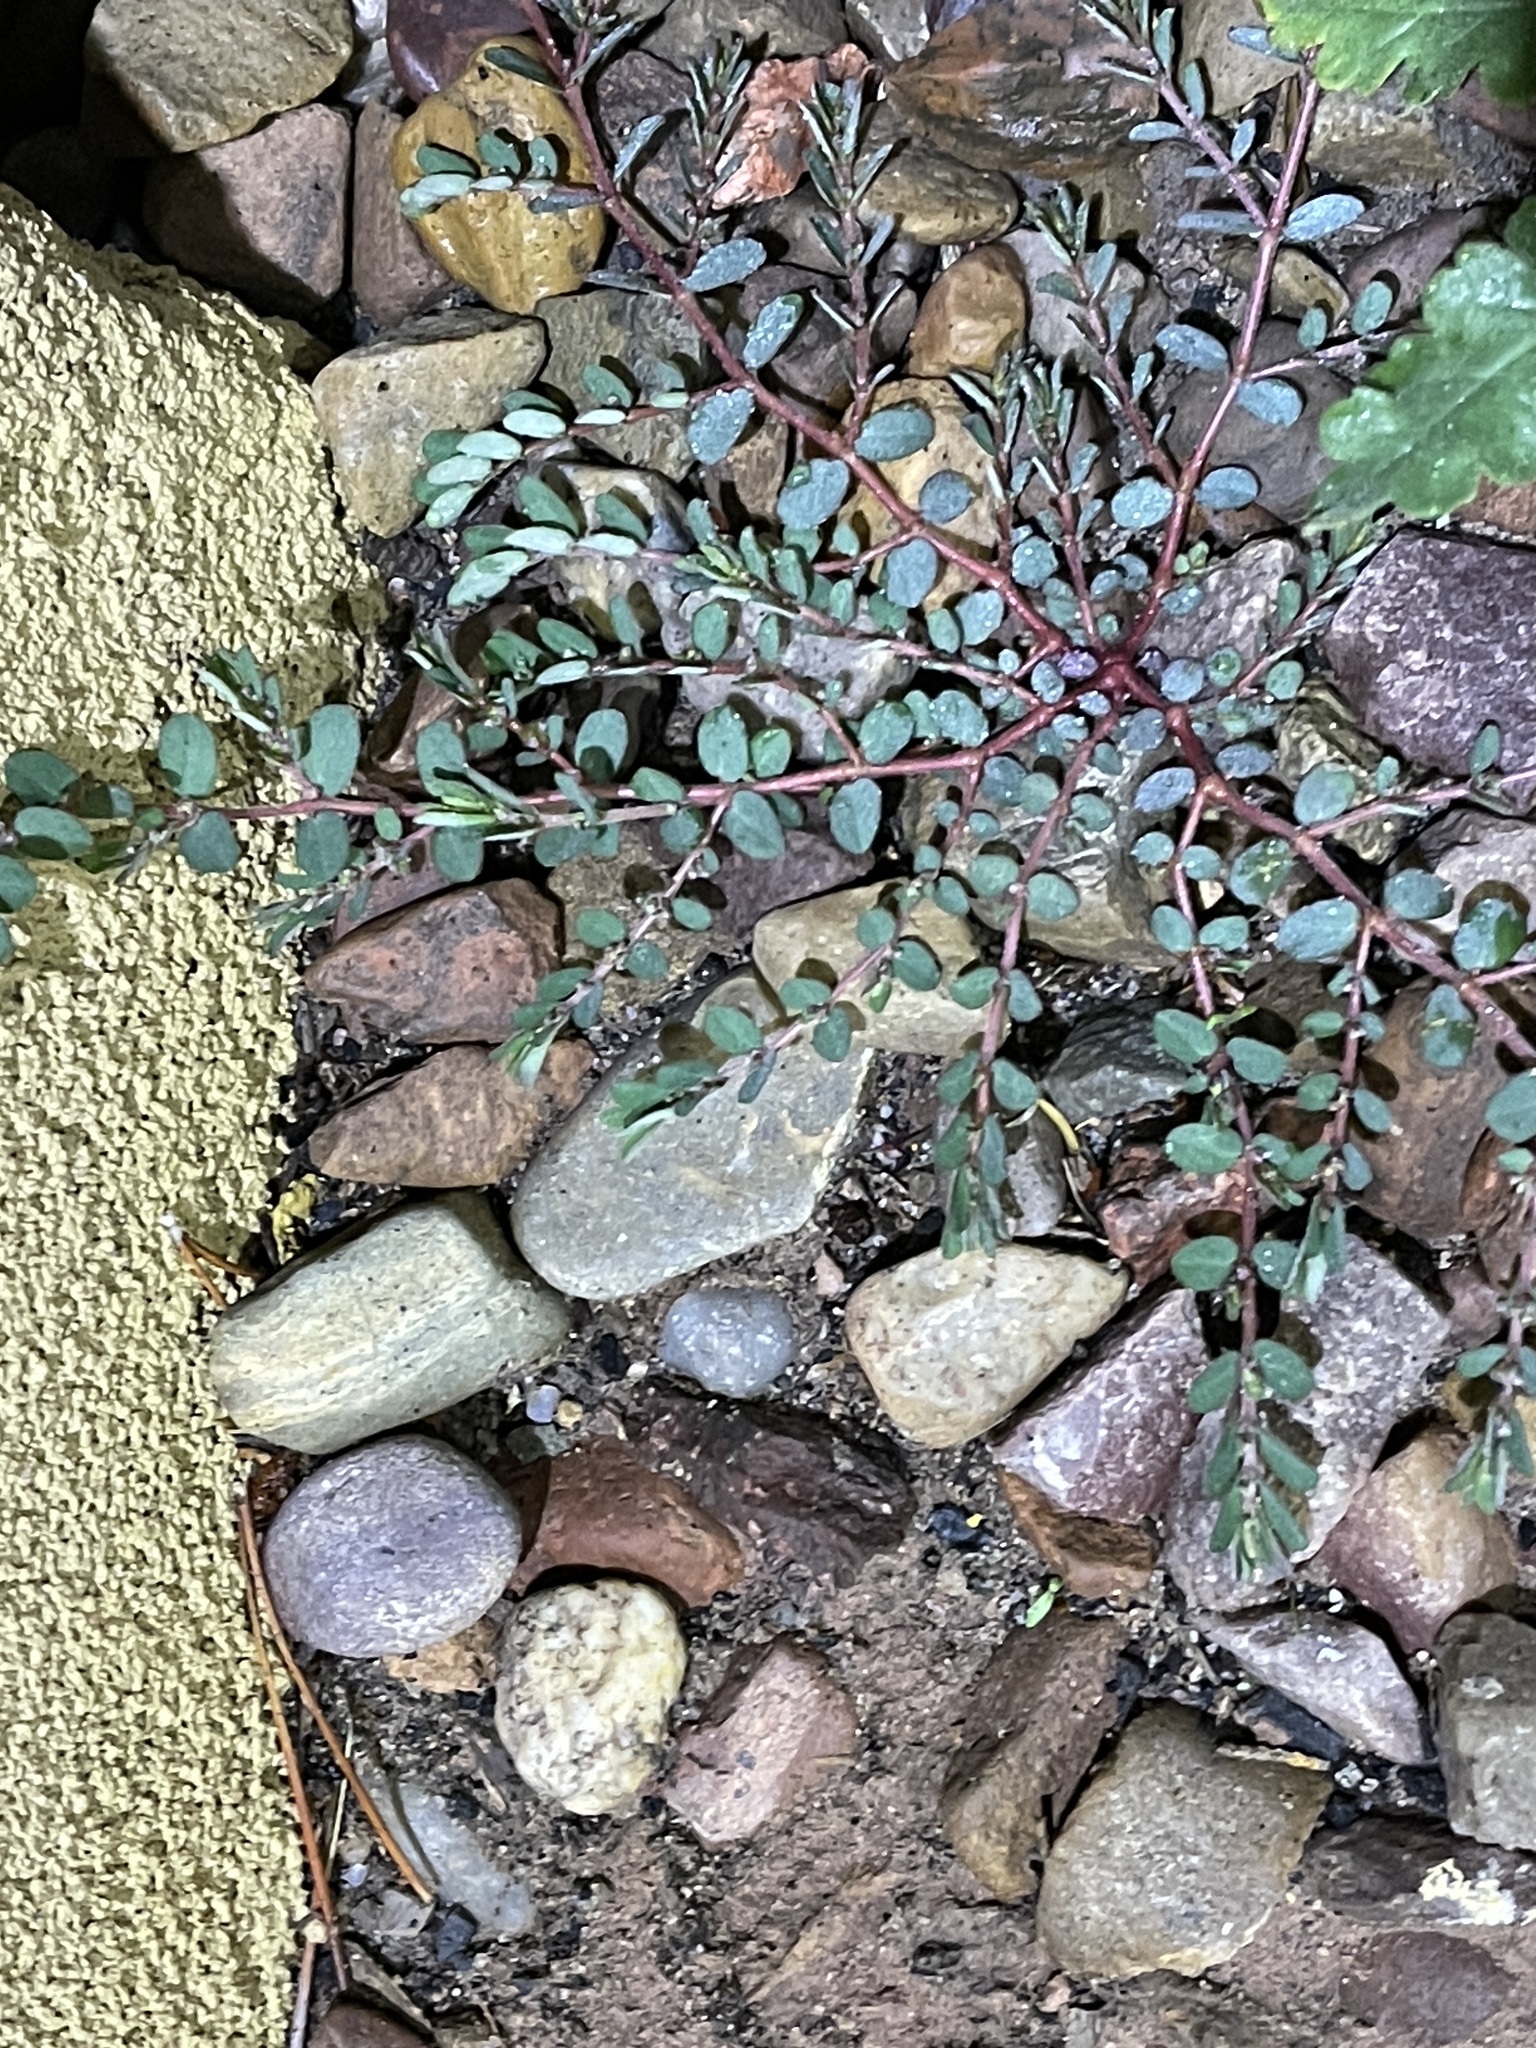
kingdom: Plantae
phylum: Tracheophyta
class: Magnoliopsida
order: Malpighiales
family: Euphorbiaceae
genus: Euphorbia
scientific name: Euphorbia prostrata
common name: Prostrate sandmat
